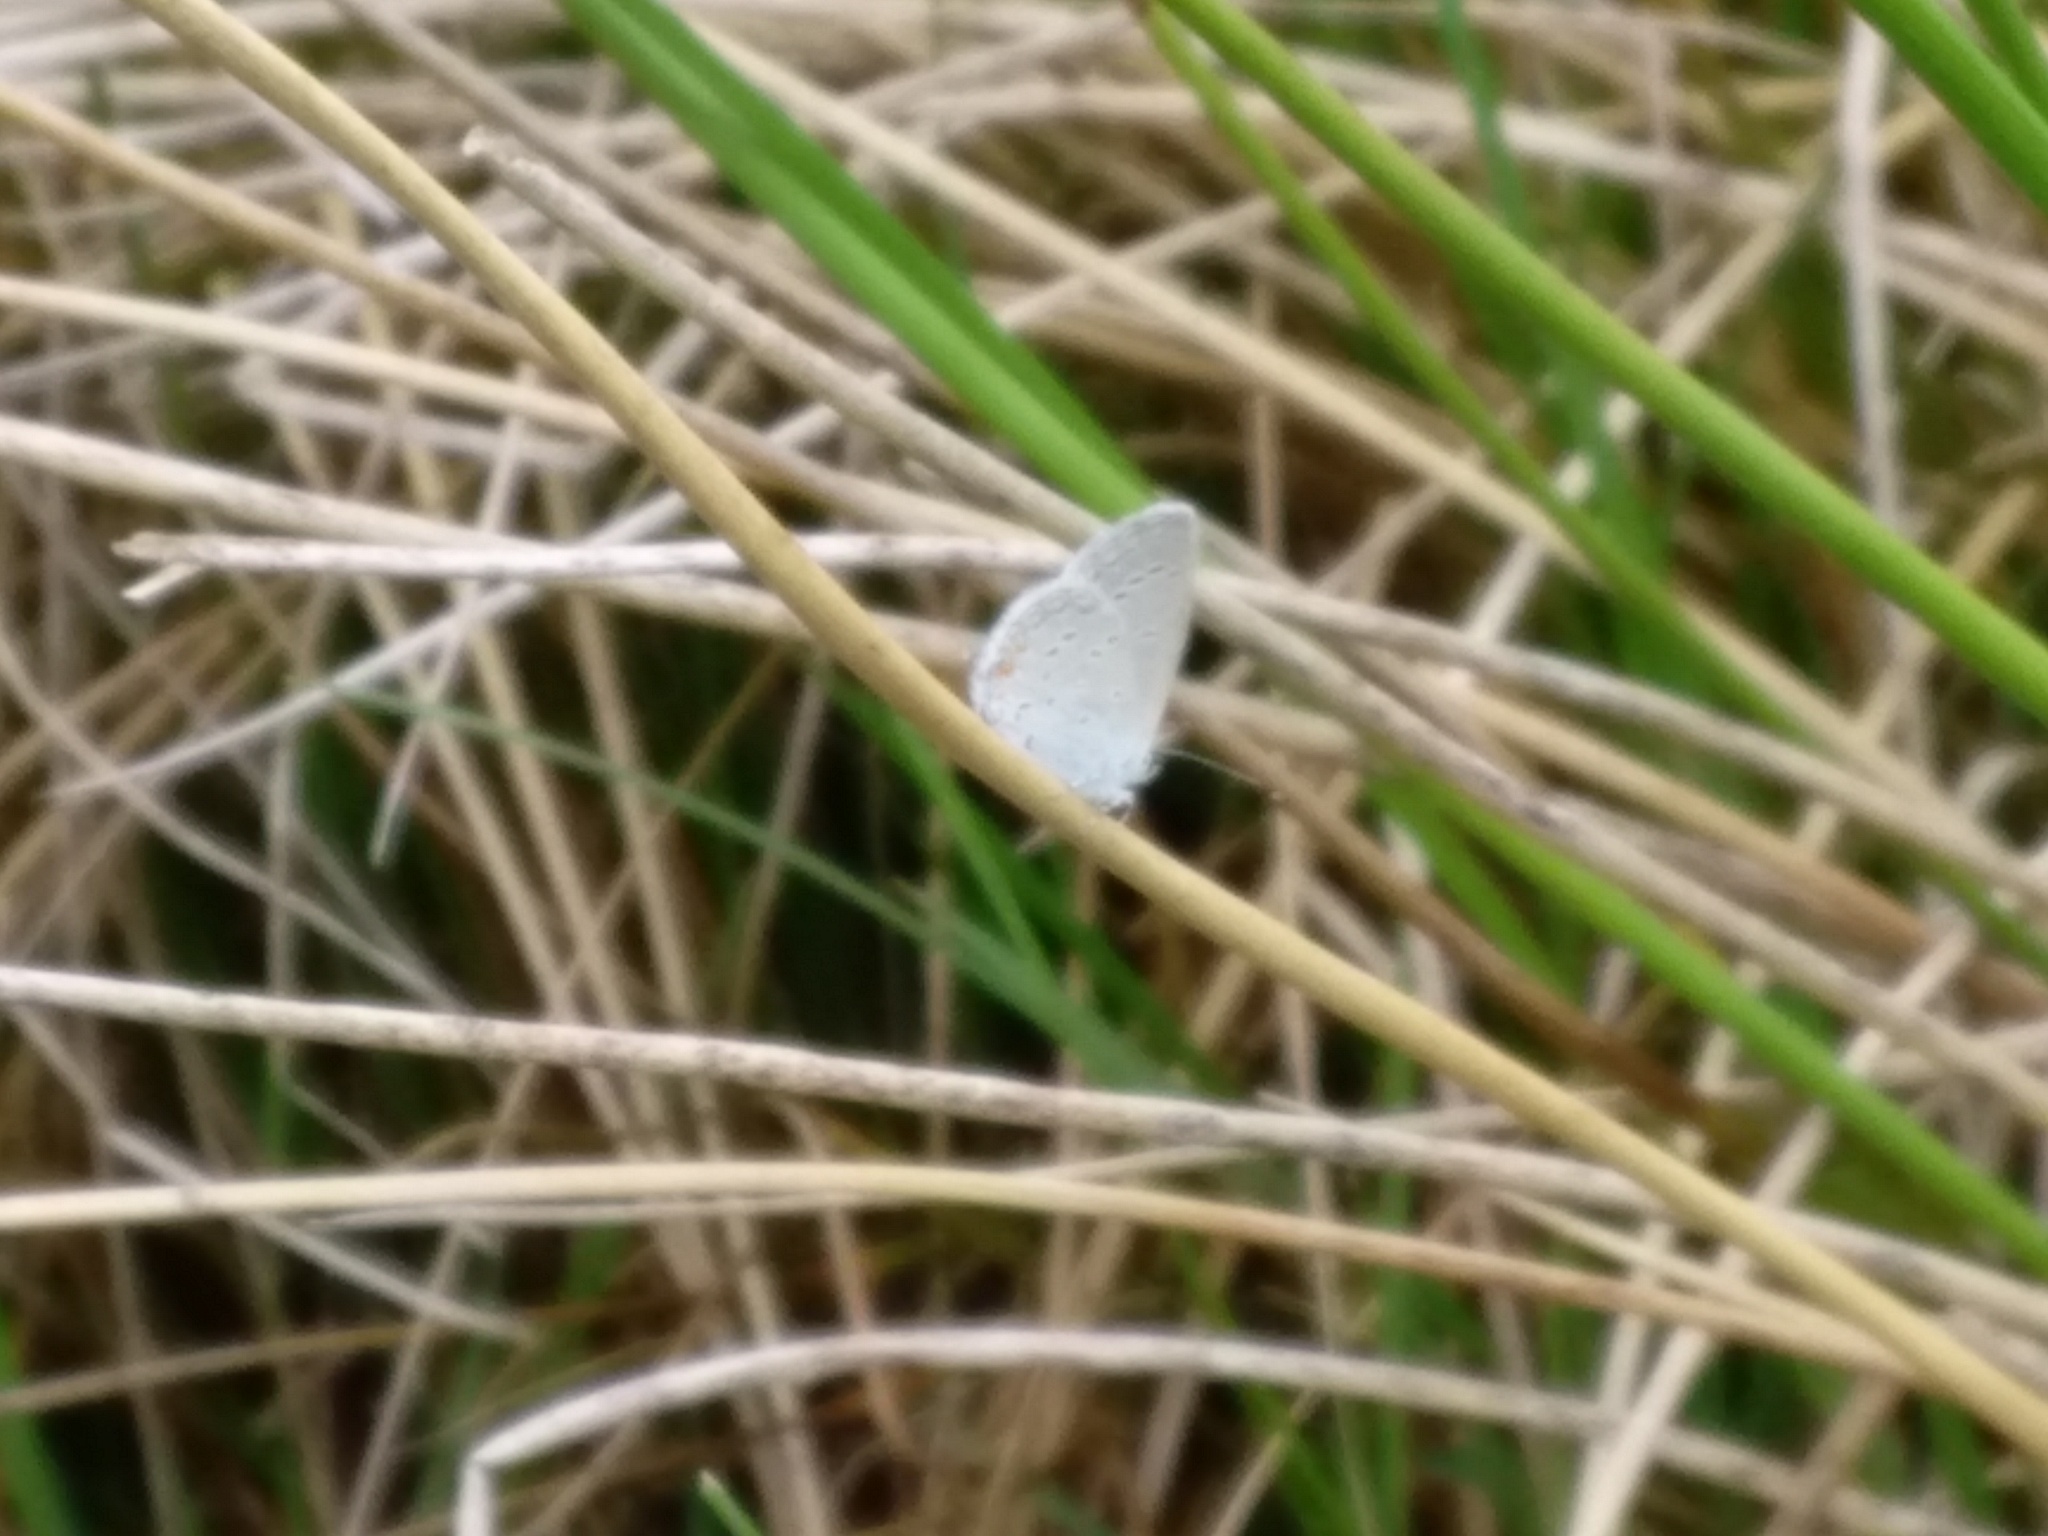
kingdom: Animalia
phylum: Arthropoda
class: Insecta
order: Lepidoptera
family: Lycaenidae
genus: Elkalyce
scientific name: Elkalyce comyntas
